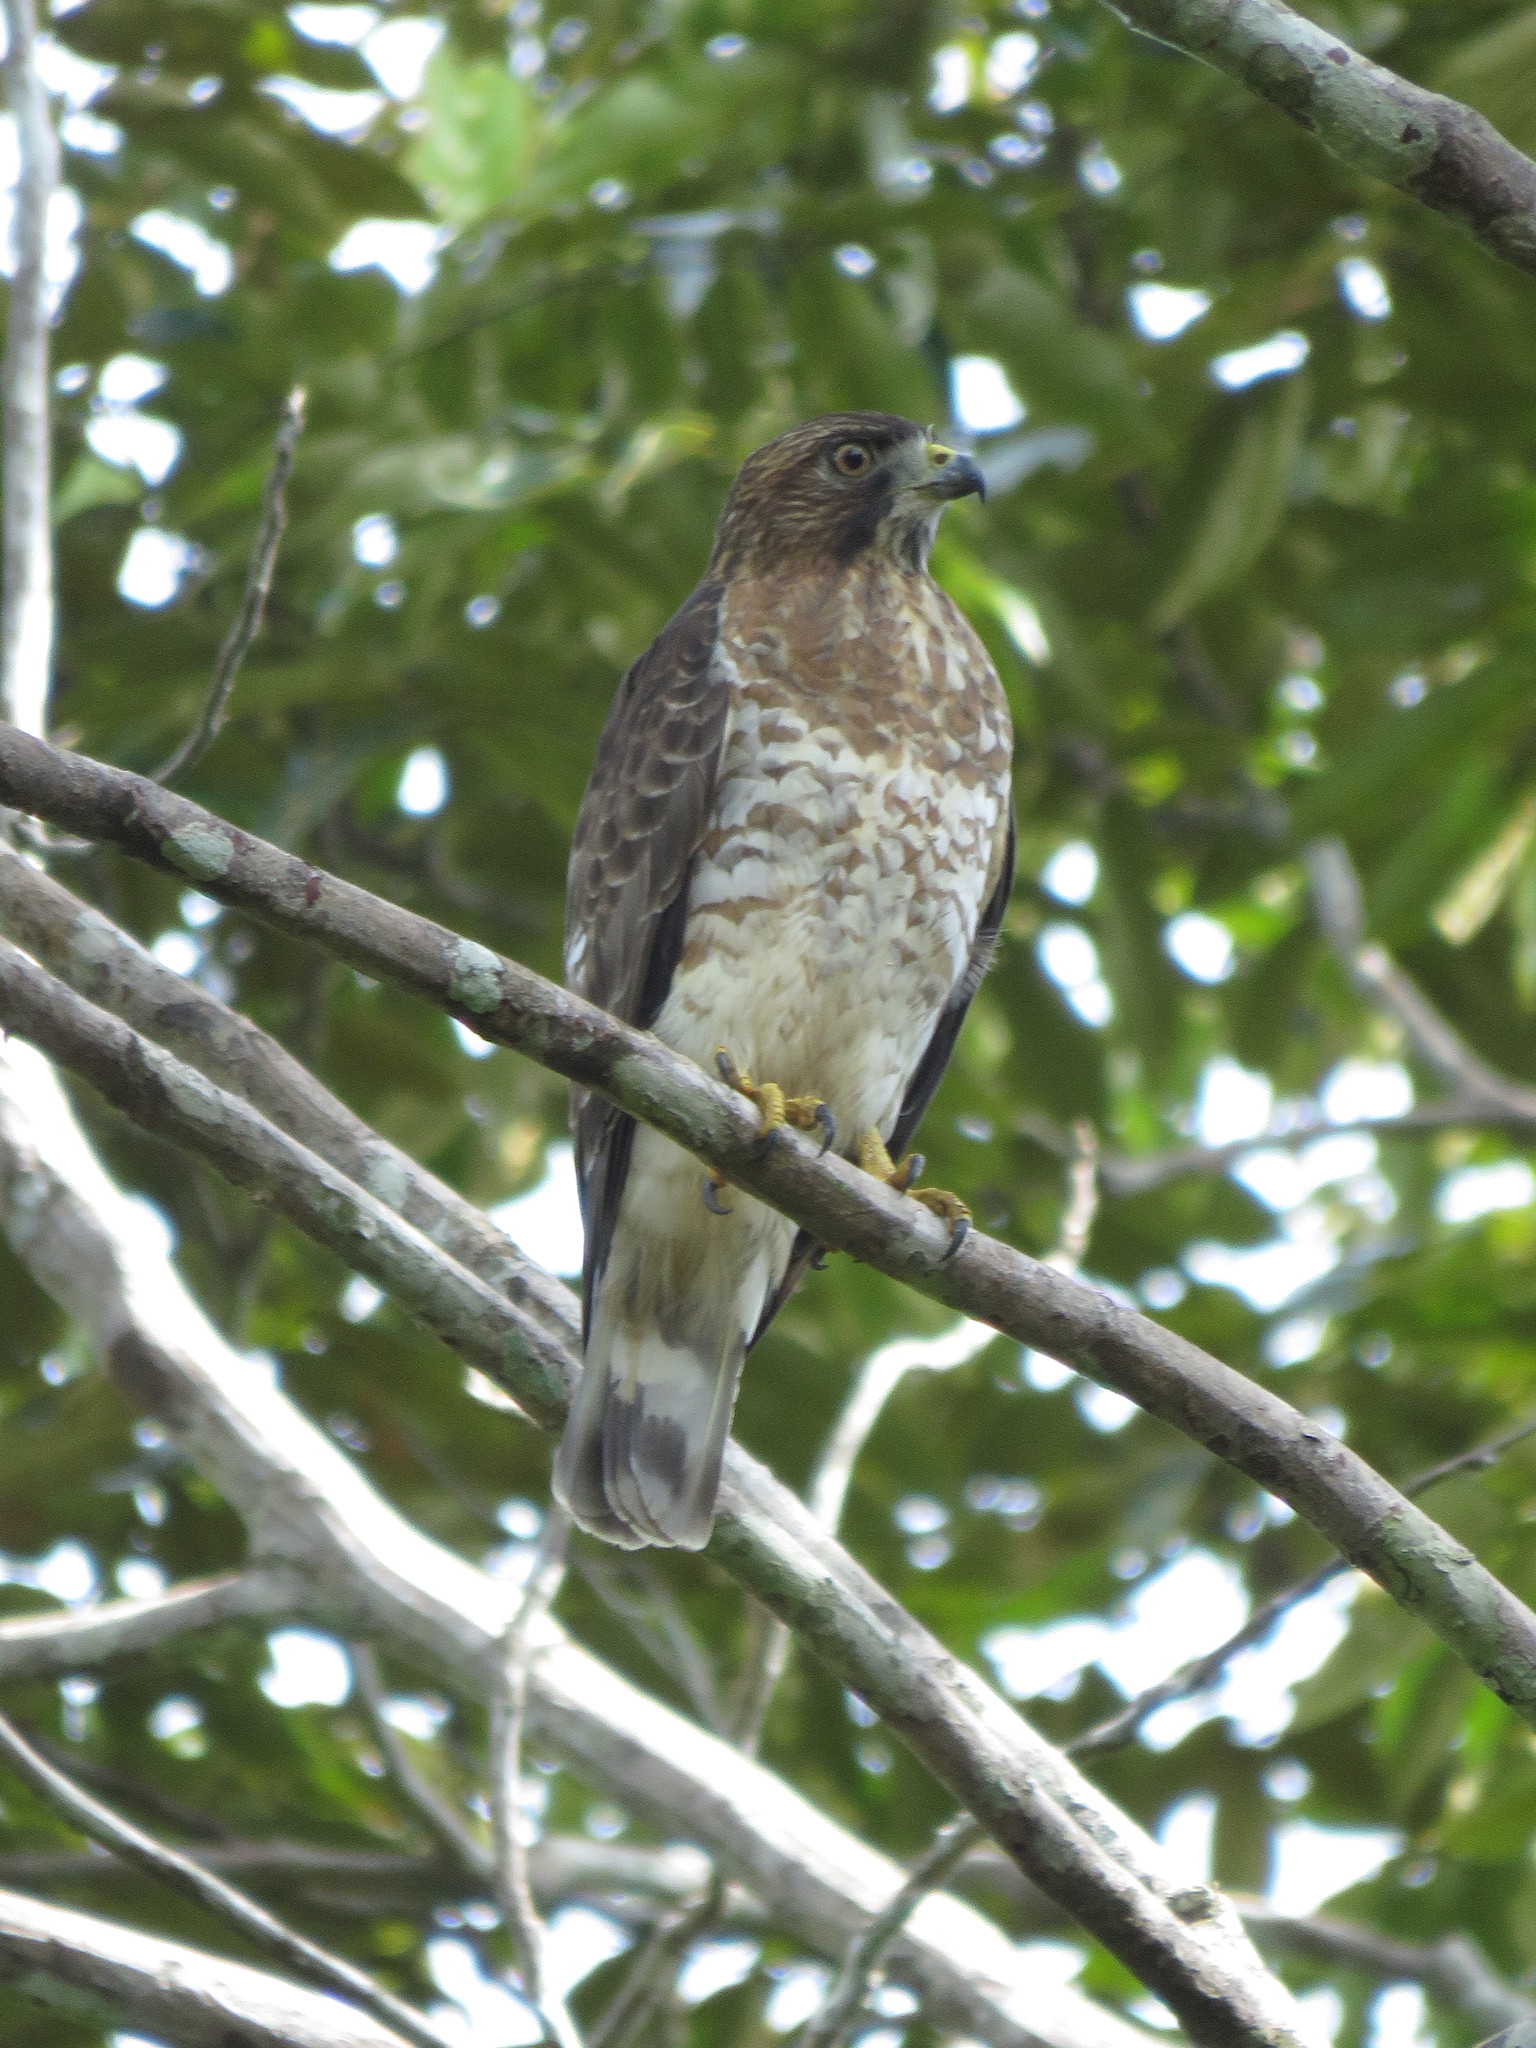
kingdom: Animalia
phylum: Chordata
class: Aves
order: Accipitriformes
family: Accipitridae
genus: Buteo
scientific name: Buteo platypterus
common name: Broad-winged hawk
